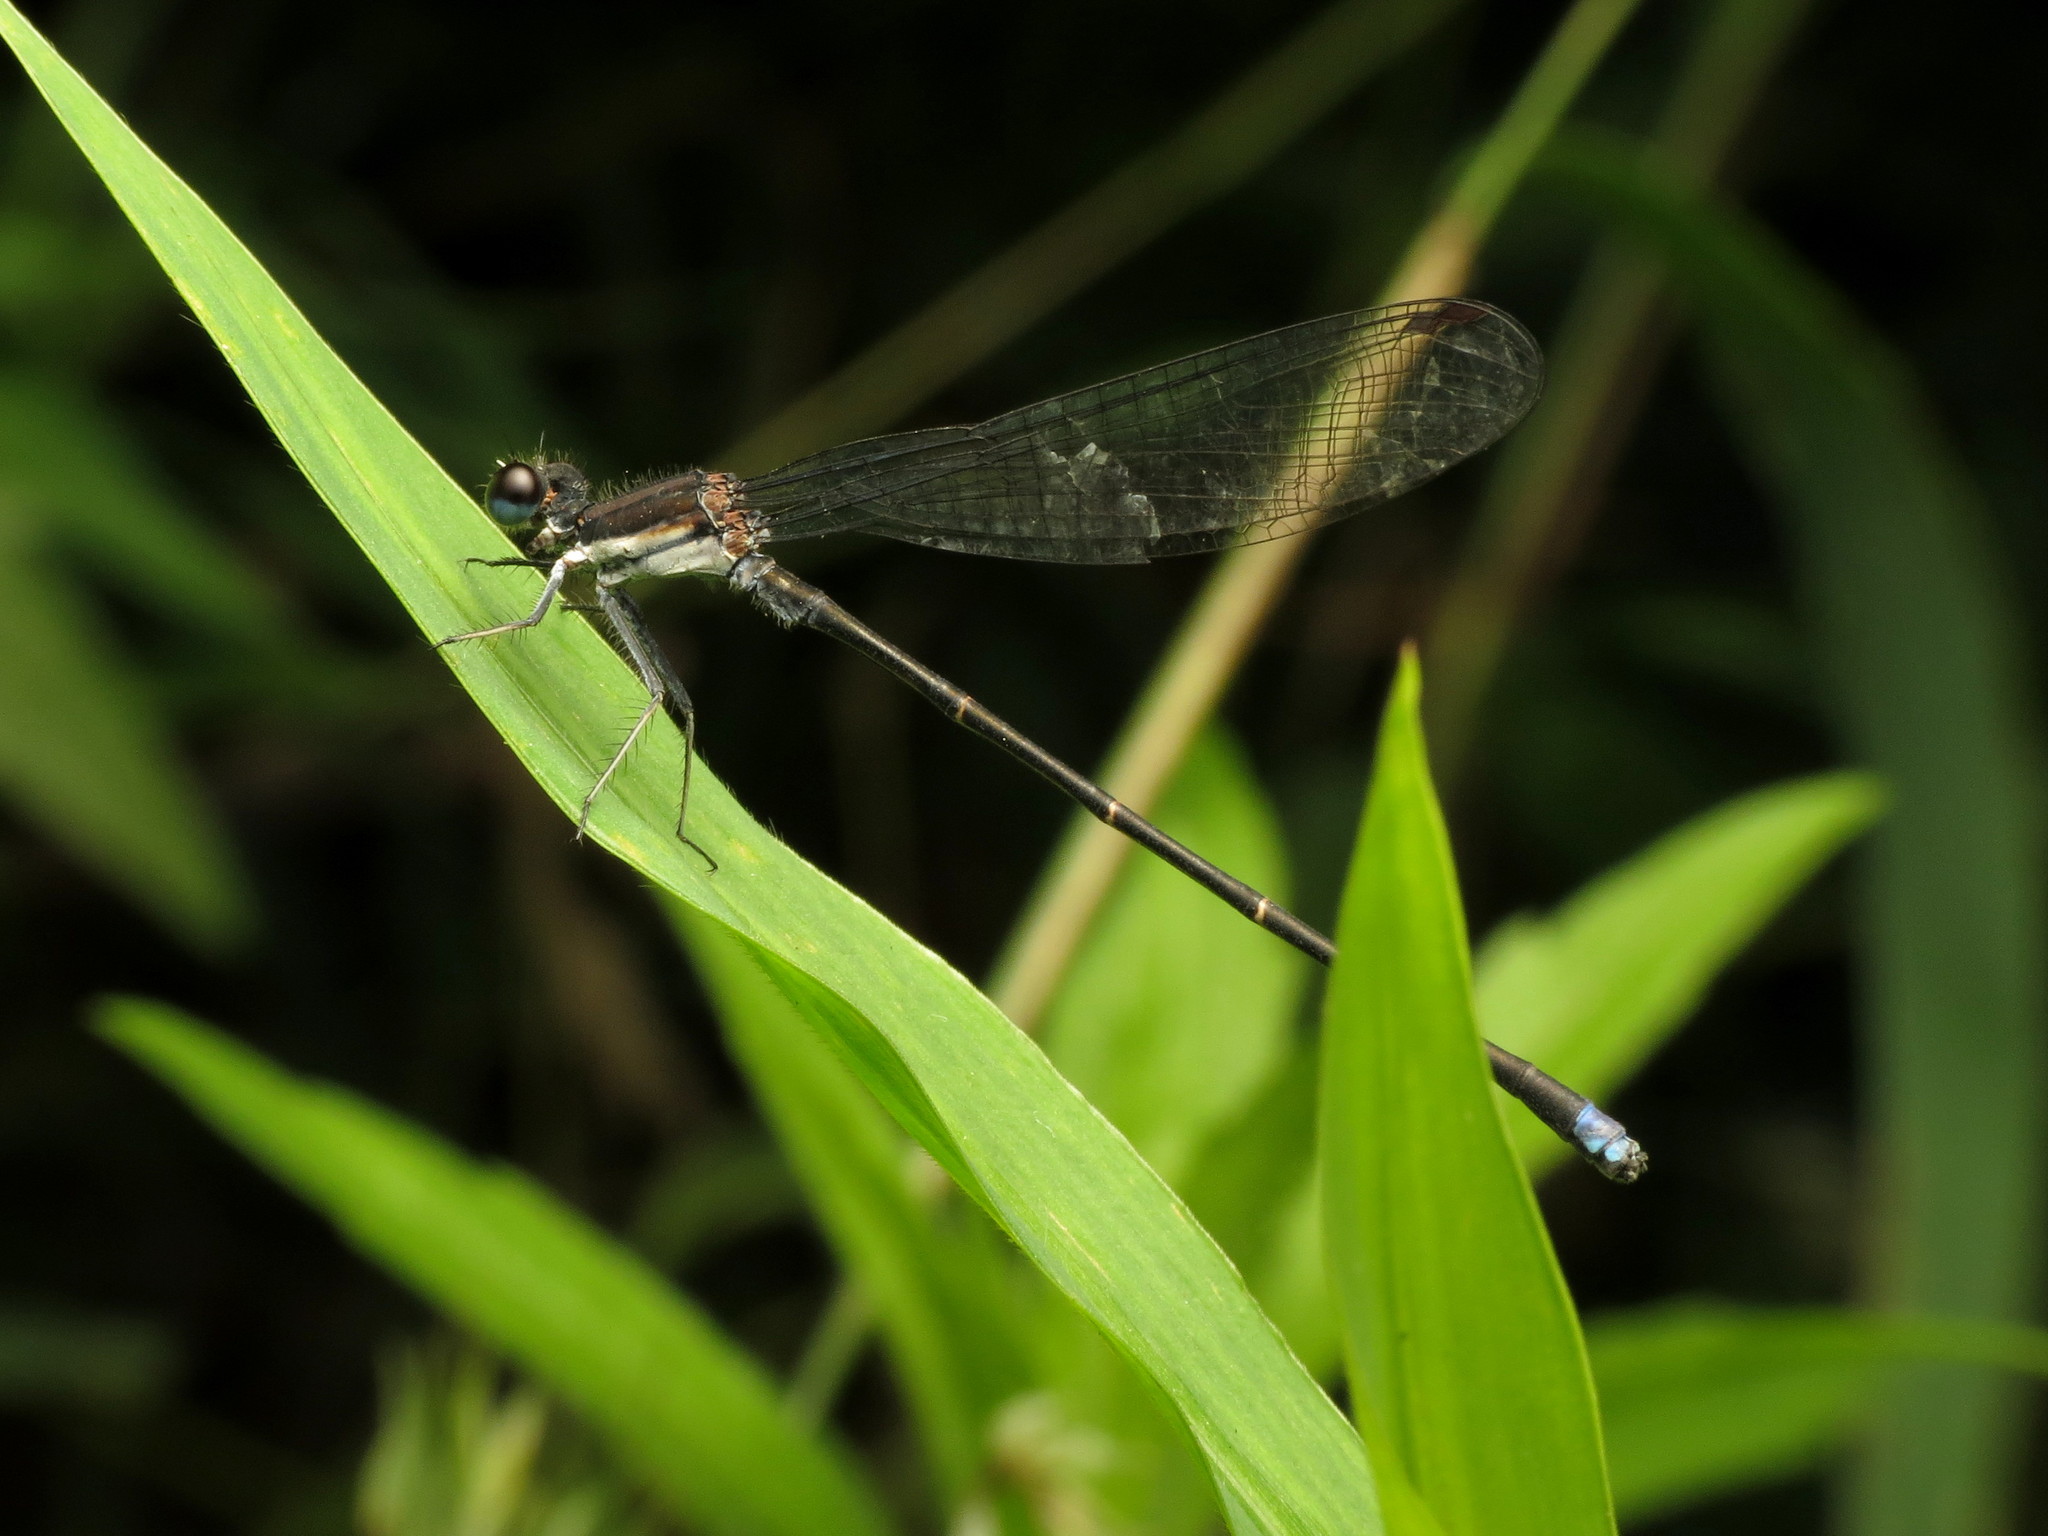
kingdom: Animalia
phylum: Arthropoda
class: Insecta
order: Odonata
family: Coenagrionidae
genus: Argia
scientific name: Argia tibialis
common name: Blue-tipped dancer
